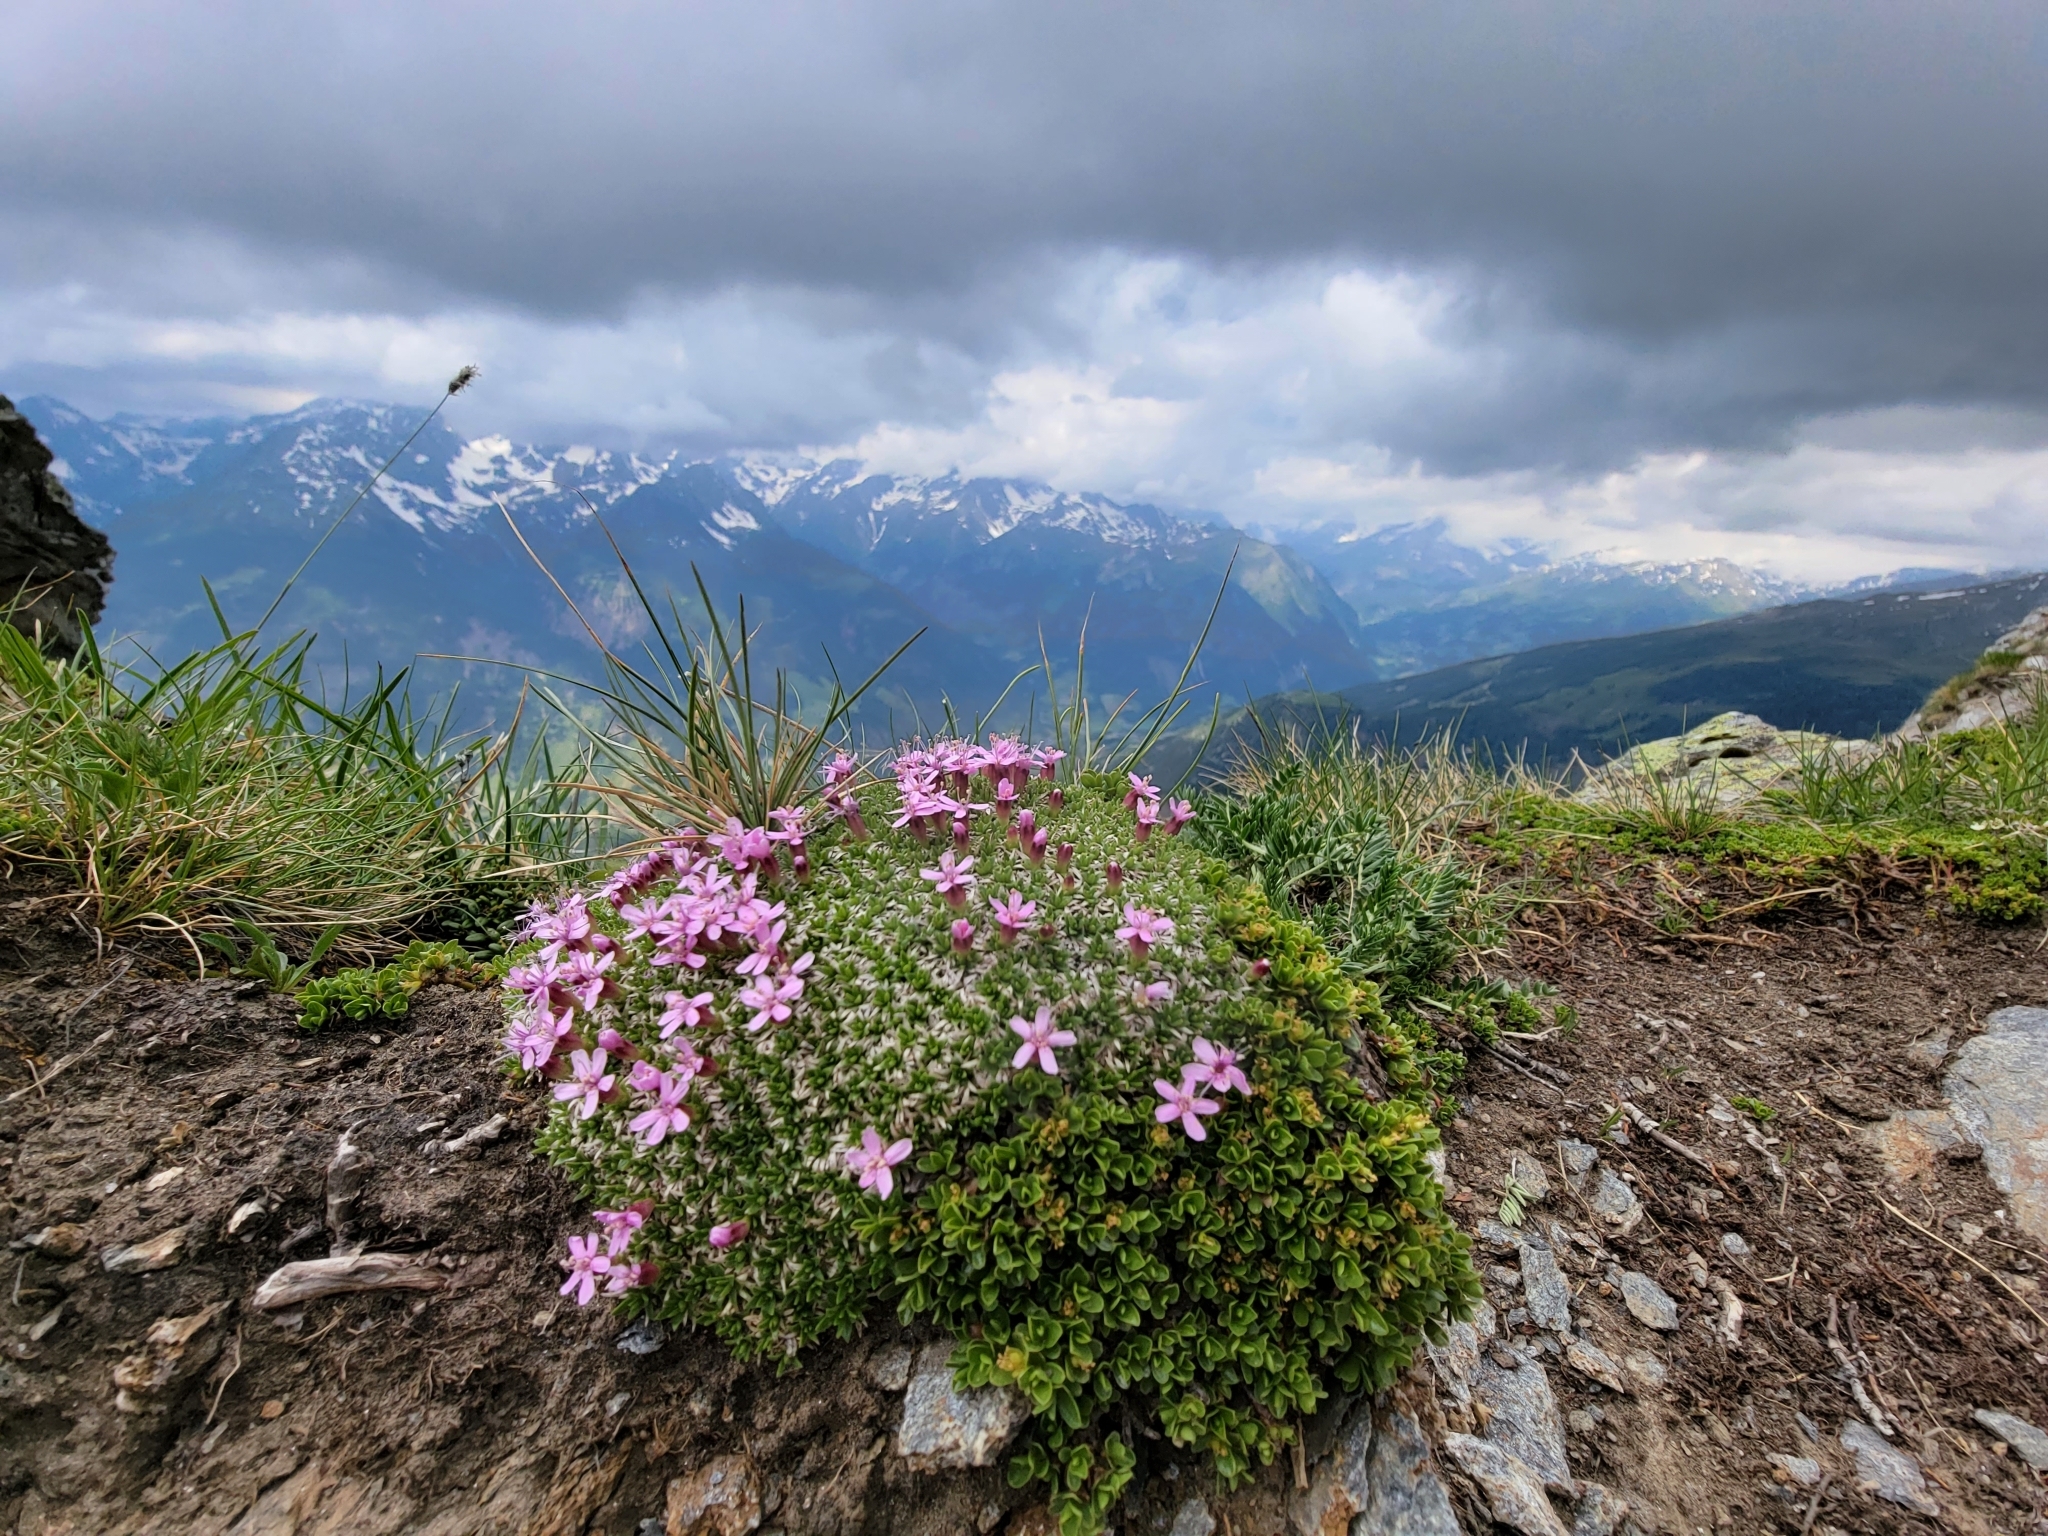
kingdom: Plantae
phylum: Tracheophyta
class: Magnoliopsida
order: Caryophyllales
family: Caryophyllaceae
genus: Silene
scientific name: Silene acaulis
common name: Moss campion
